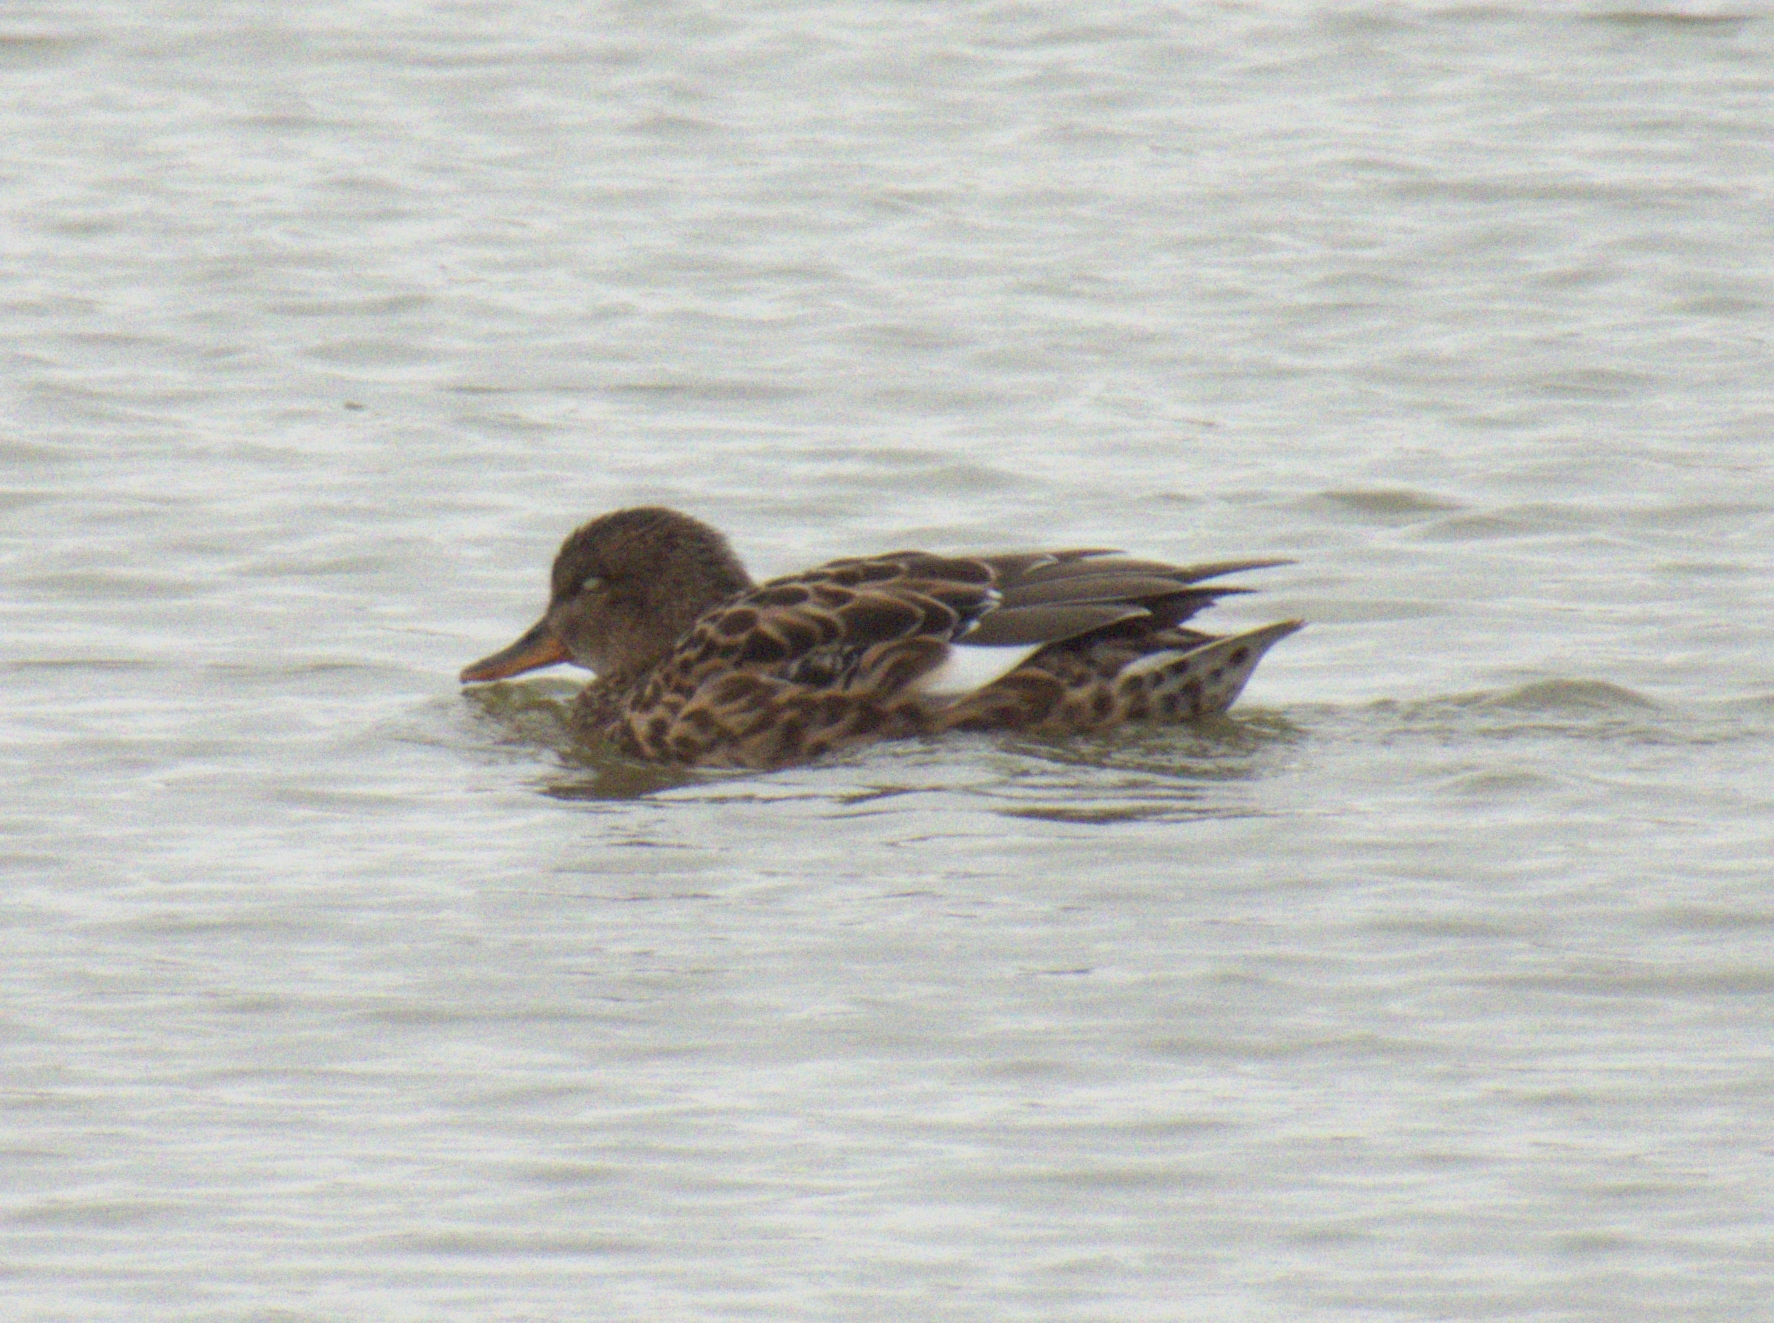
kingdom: Animalia
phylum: Chordata
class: Aves
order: Anseriformes
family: Anatidae
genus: Mareca
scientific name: Mareca strepera
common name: Gadwall
